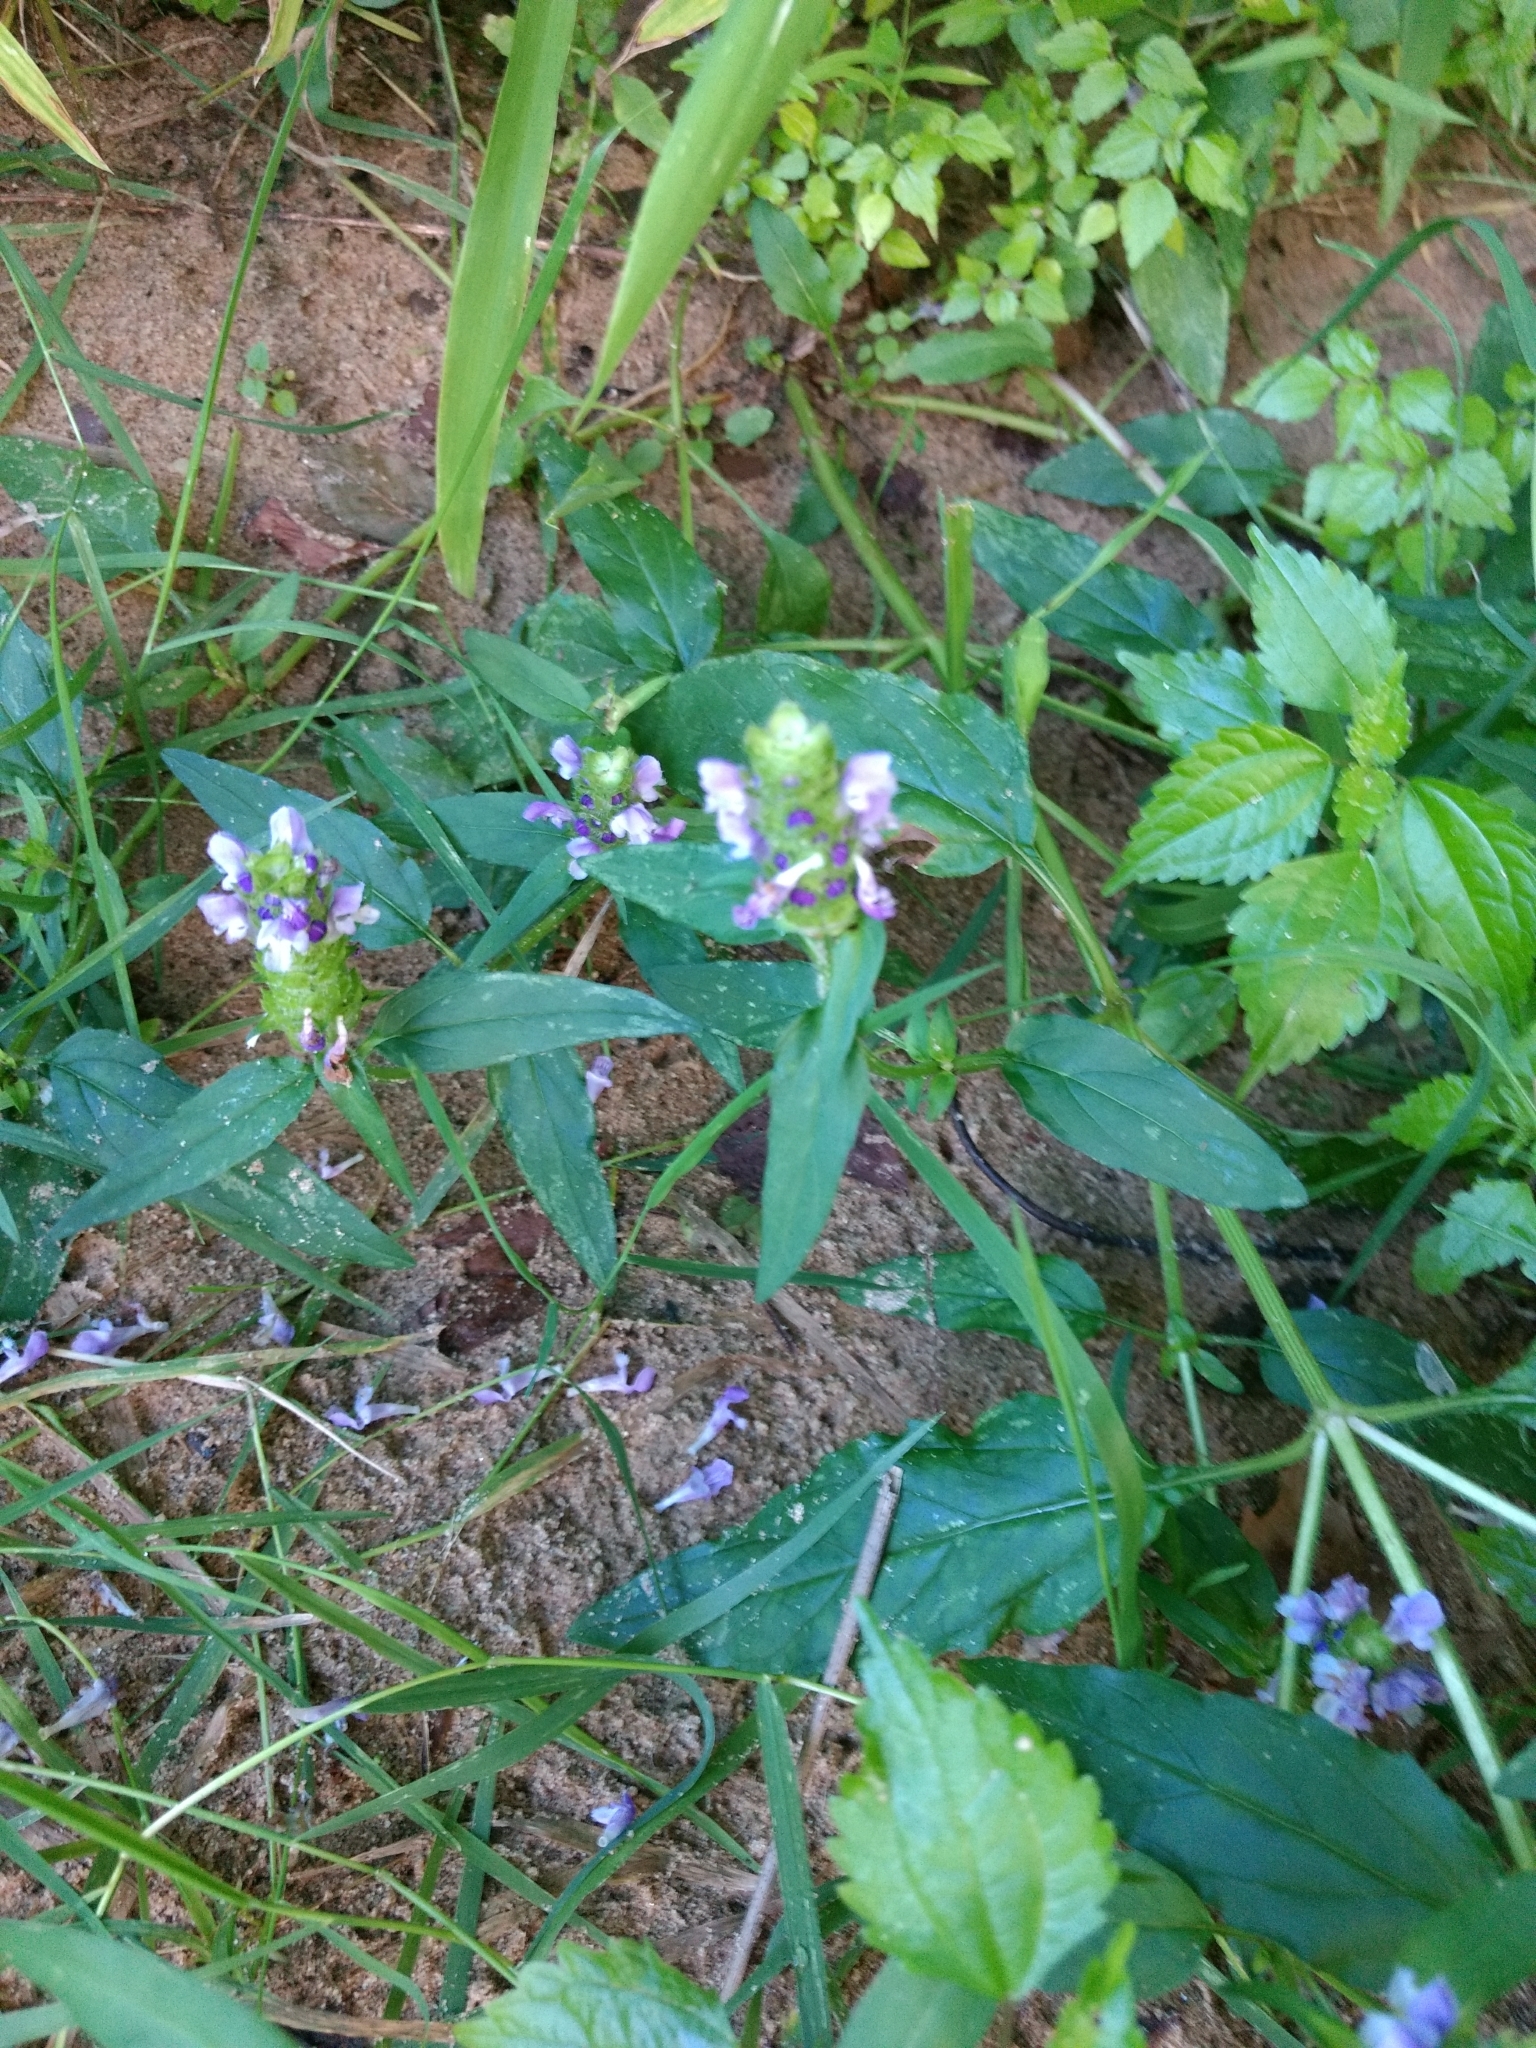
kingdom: Plantae
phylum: Tracheophyta
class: Magnoliopsida
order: Lamiales
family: Lamiaceae
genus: Prunella
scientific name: Prunella vulgaris
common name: Heal-all
